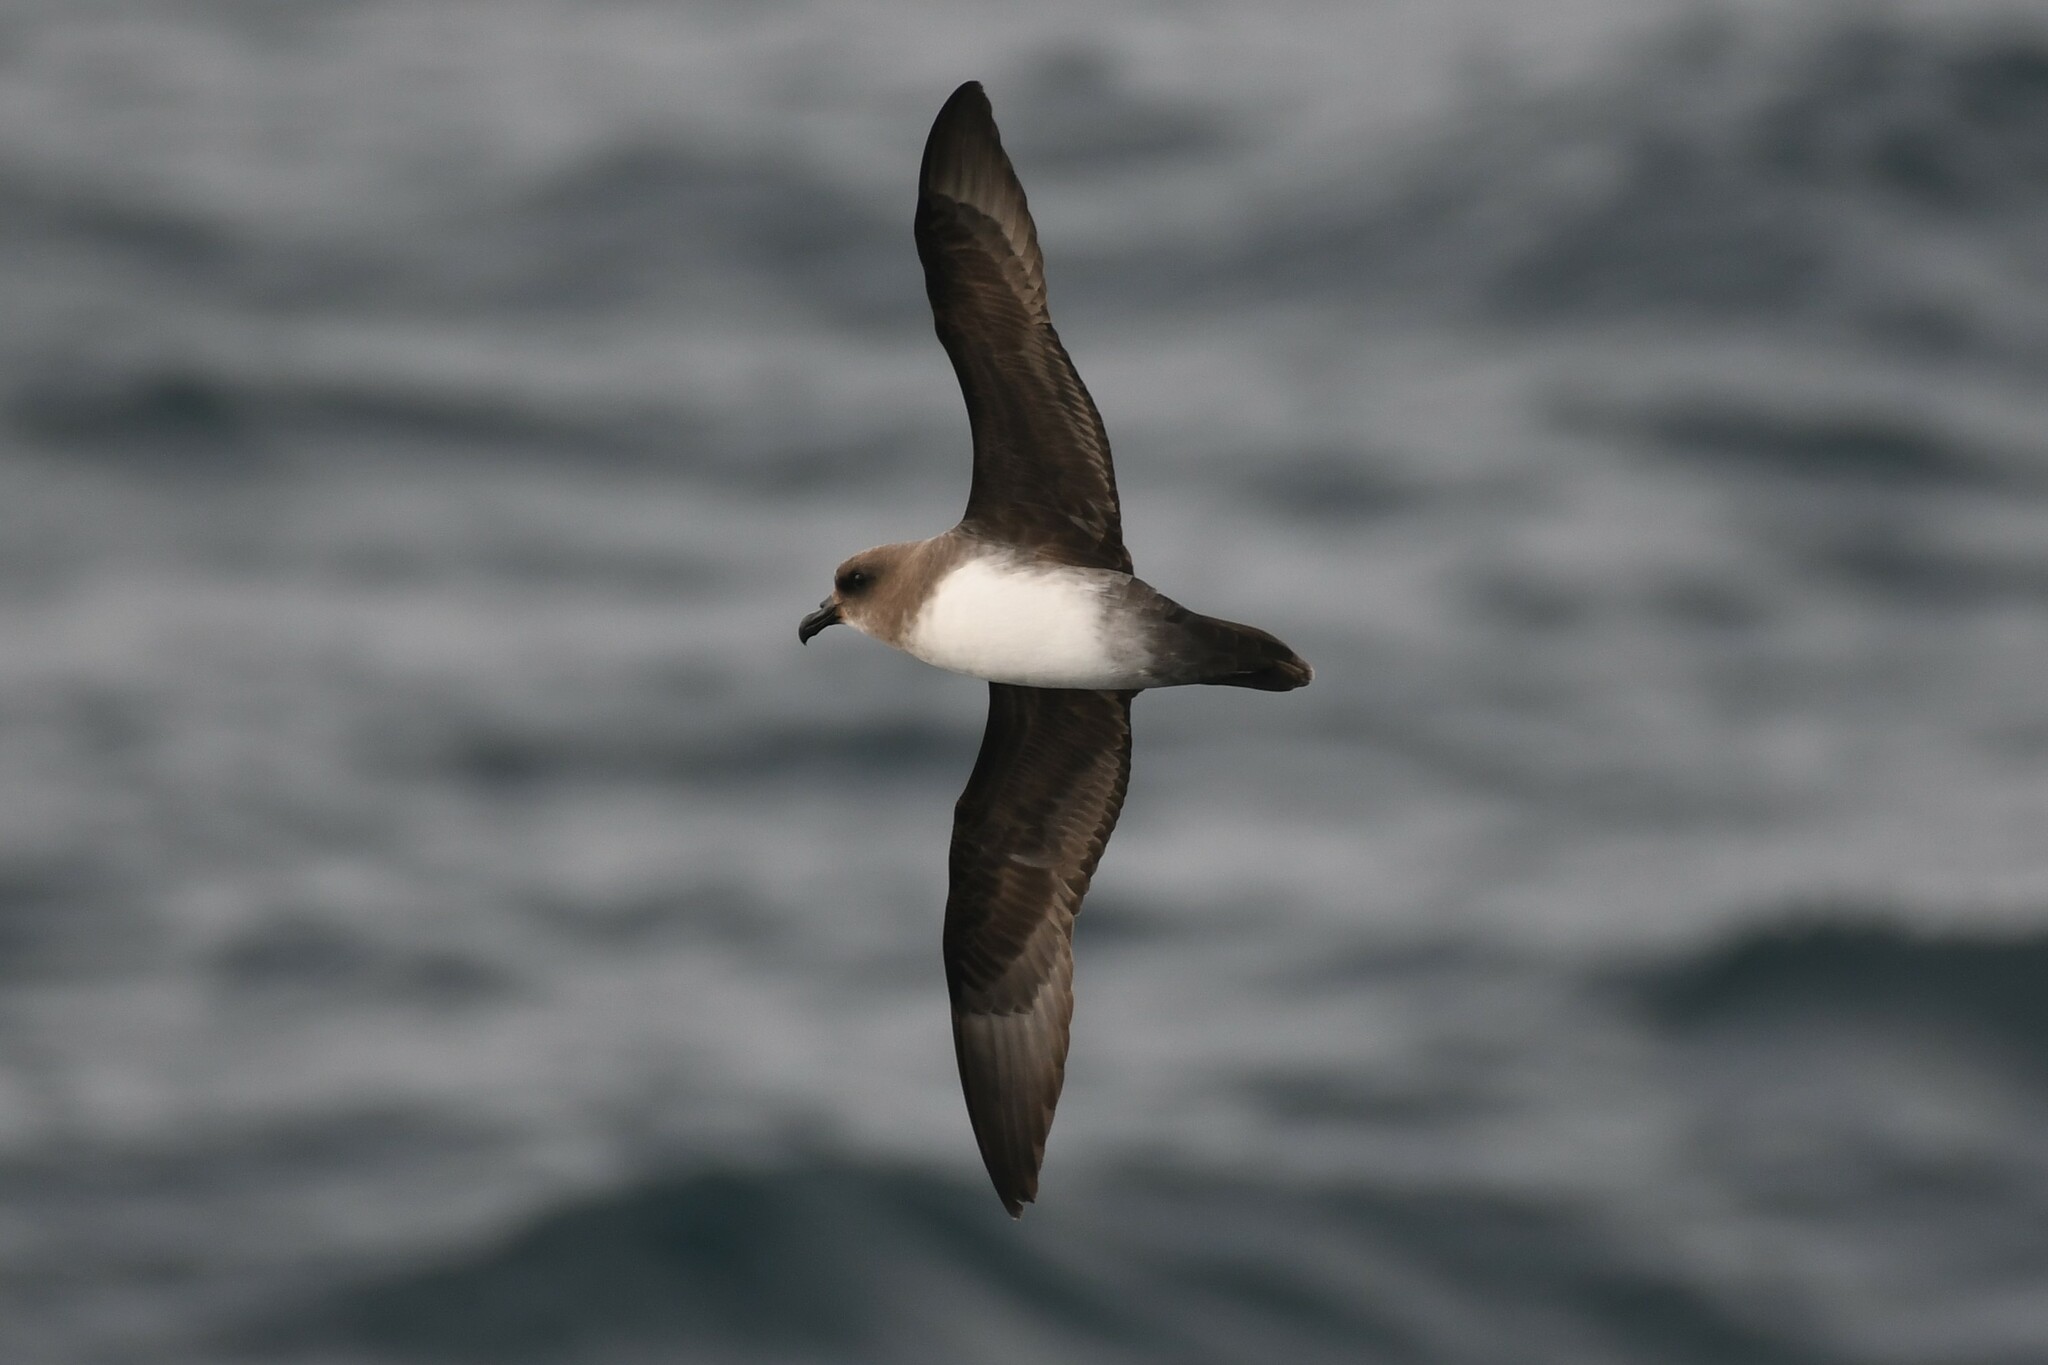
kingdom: Animalia
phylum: Chordata
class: Aves
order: Procellariiformes
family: Procellariidae
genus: Pterodroma
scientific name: Pterodroma incerta
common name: Atlantic petrel
